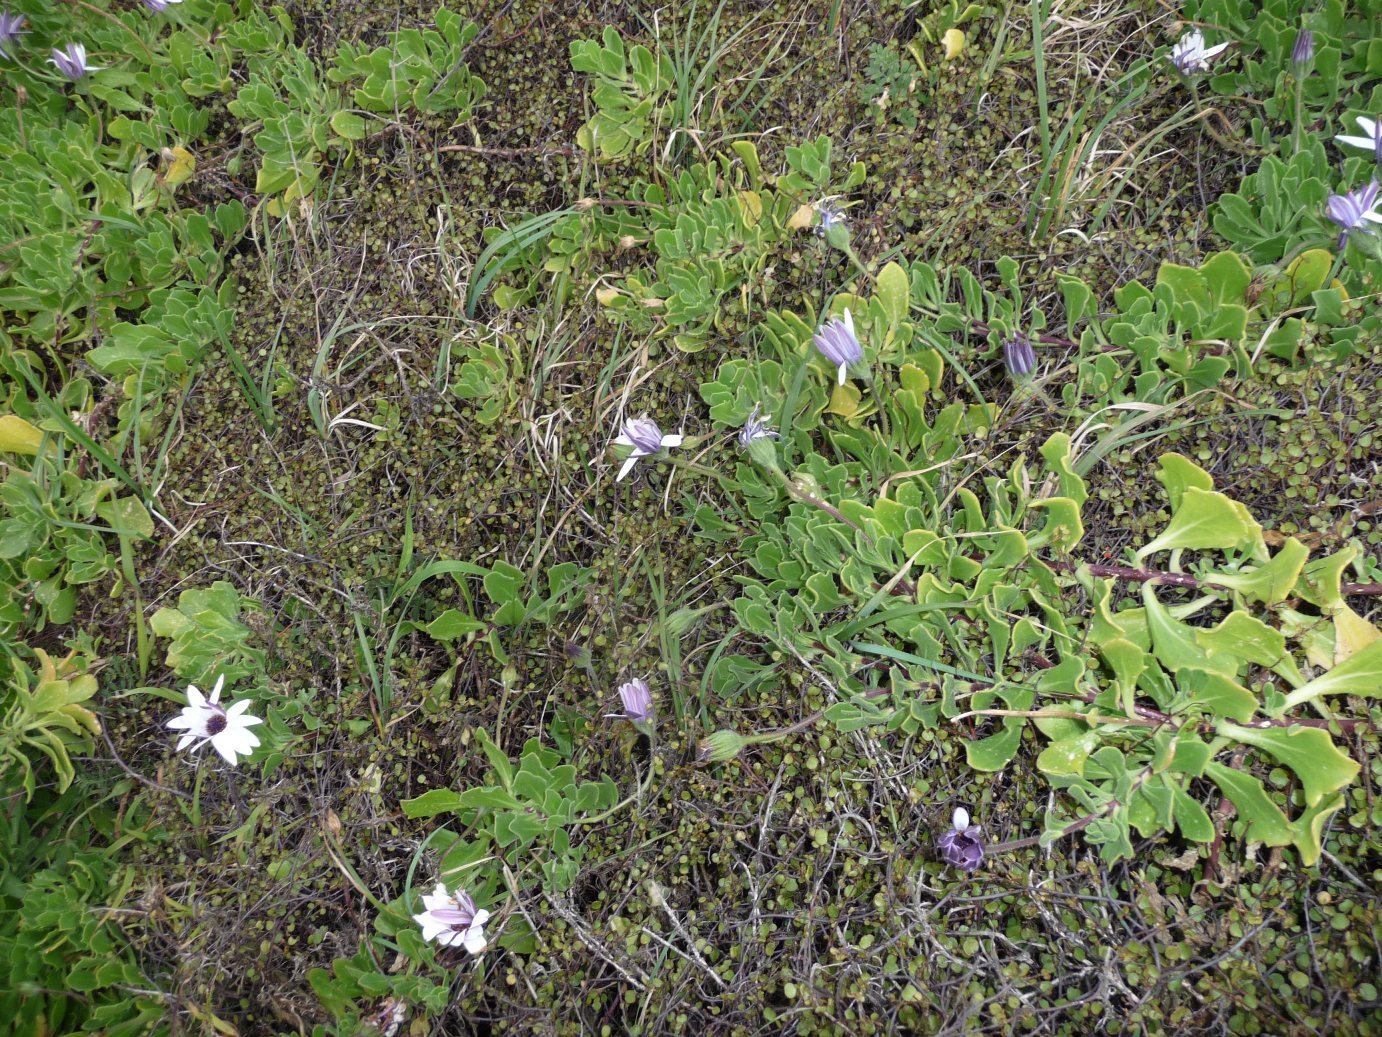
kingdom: Plantae
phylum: Tracheophyta
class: Magnoliopsida
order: Asterales
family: Asteraceae
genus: Dimorphotheca
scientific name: Dimorphotheca fruticosa
